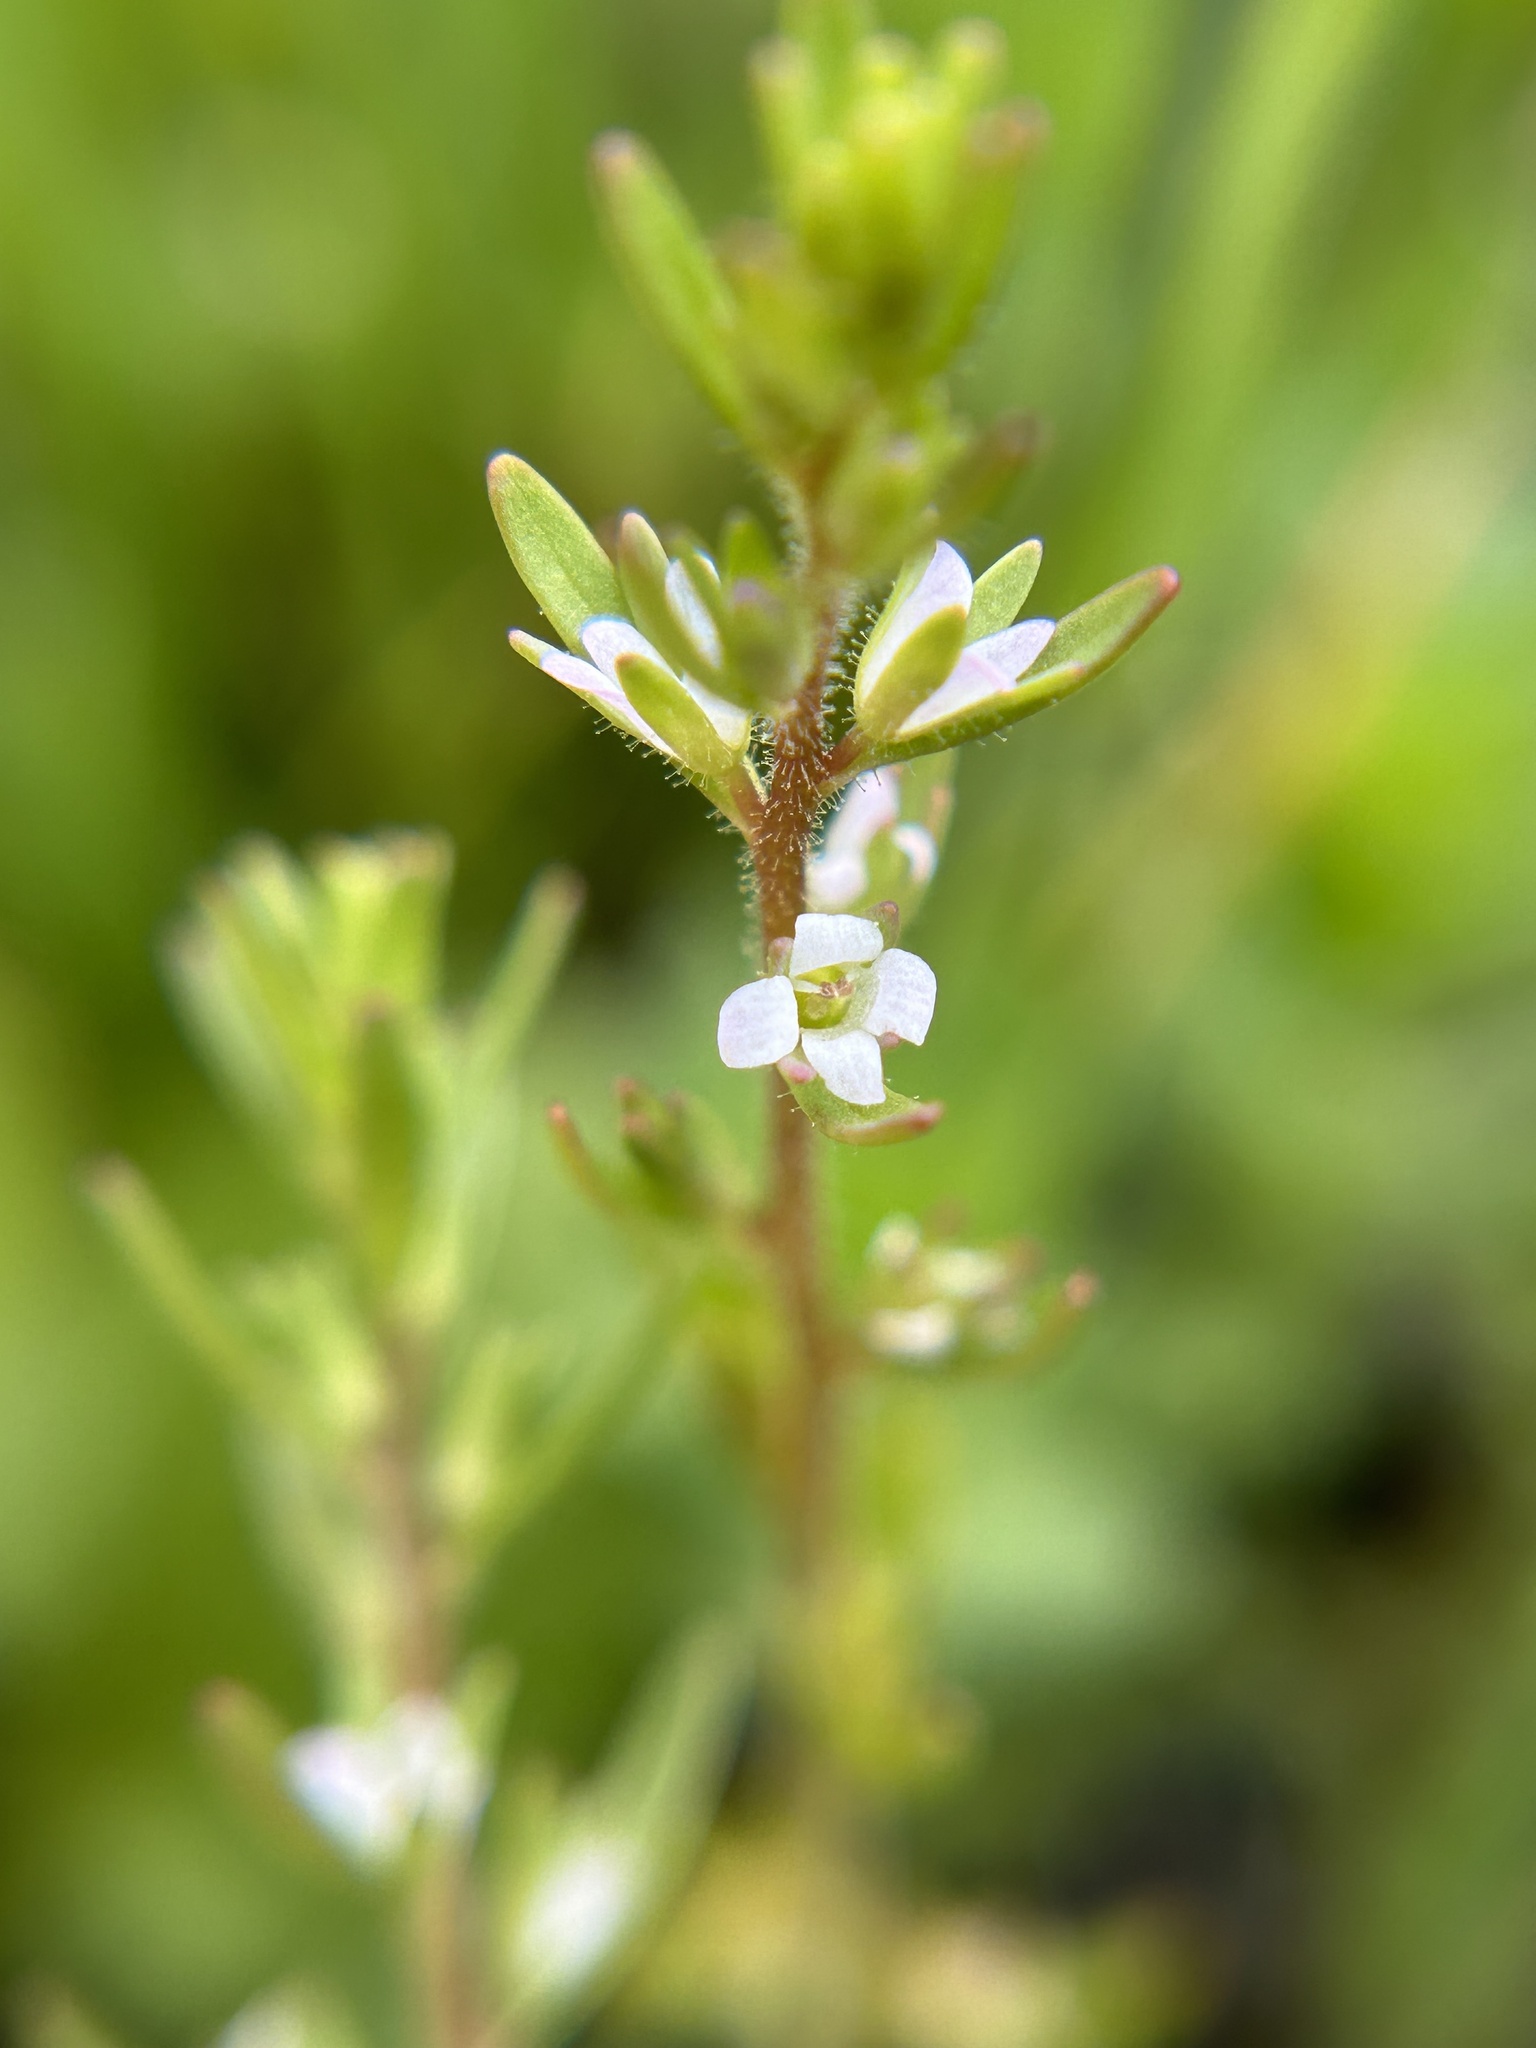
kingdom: Plantae
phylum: Tracheophyta
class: Magnoliopsida
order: Lamiales
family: Plantaginaceae
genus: Veronica
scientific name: Veronica peregrina
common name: Neckweed
